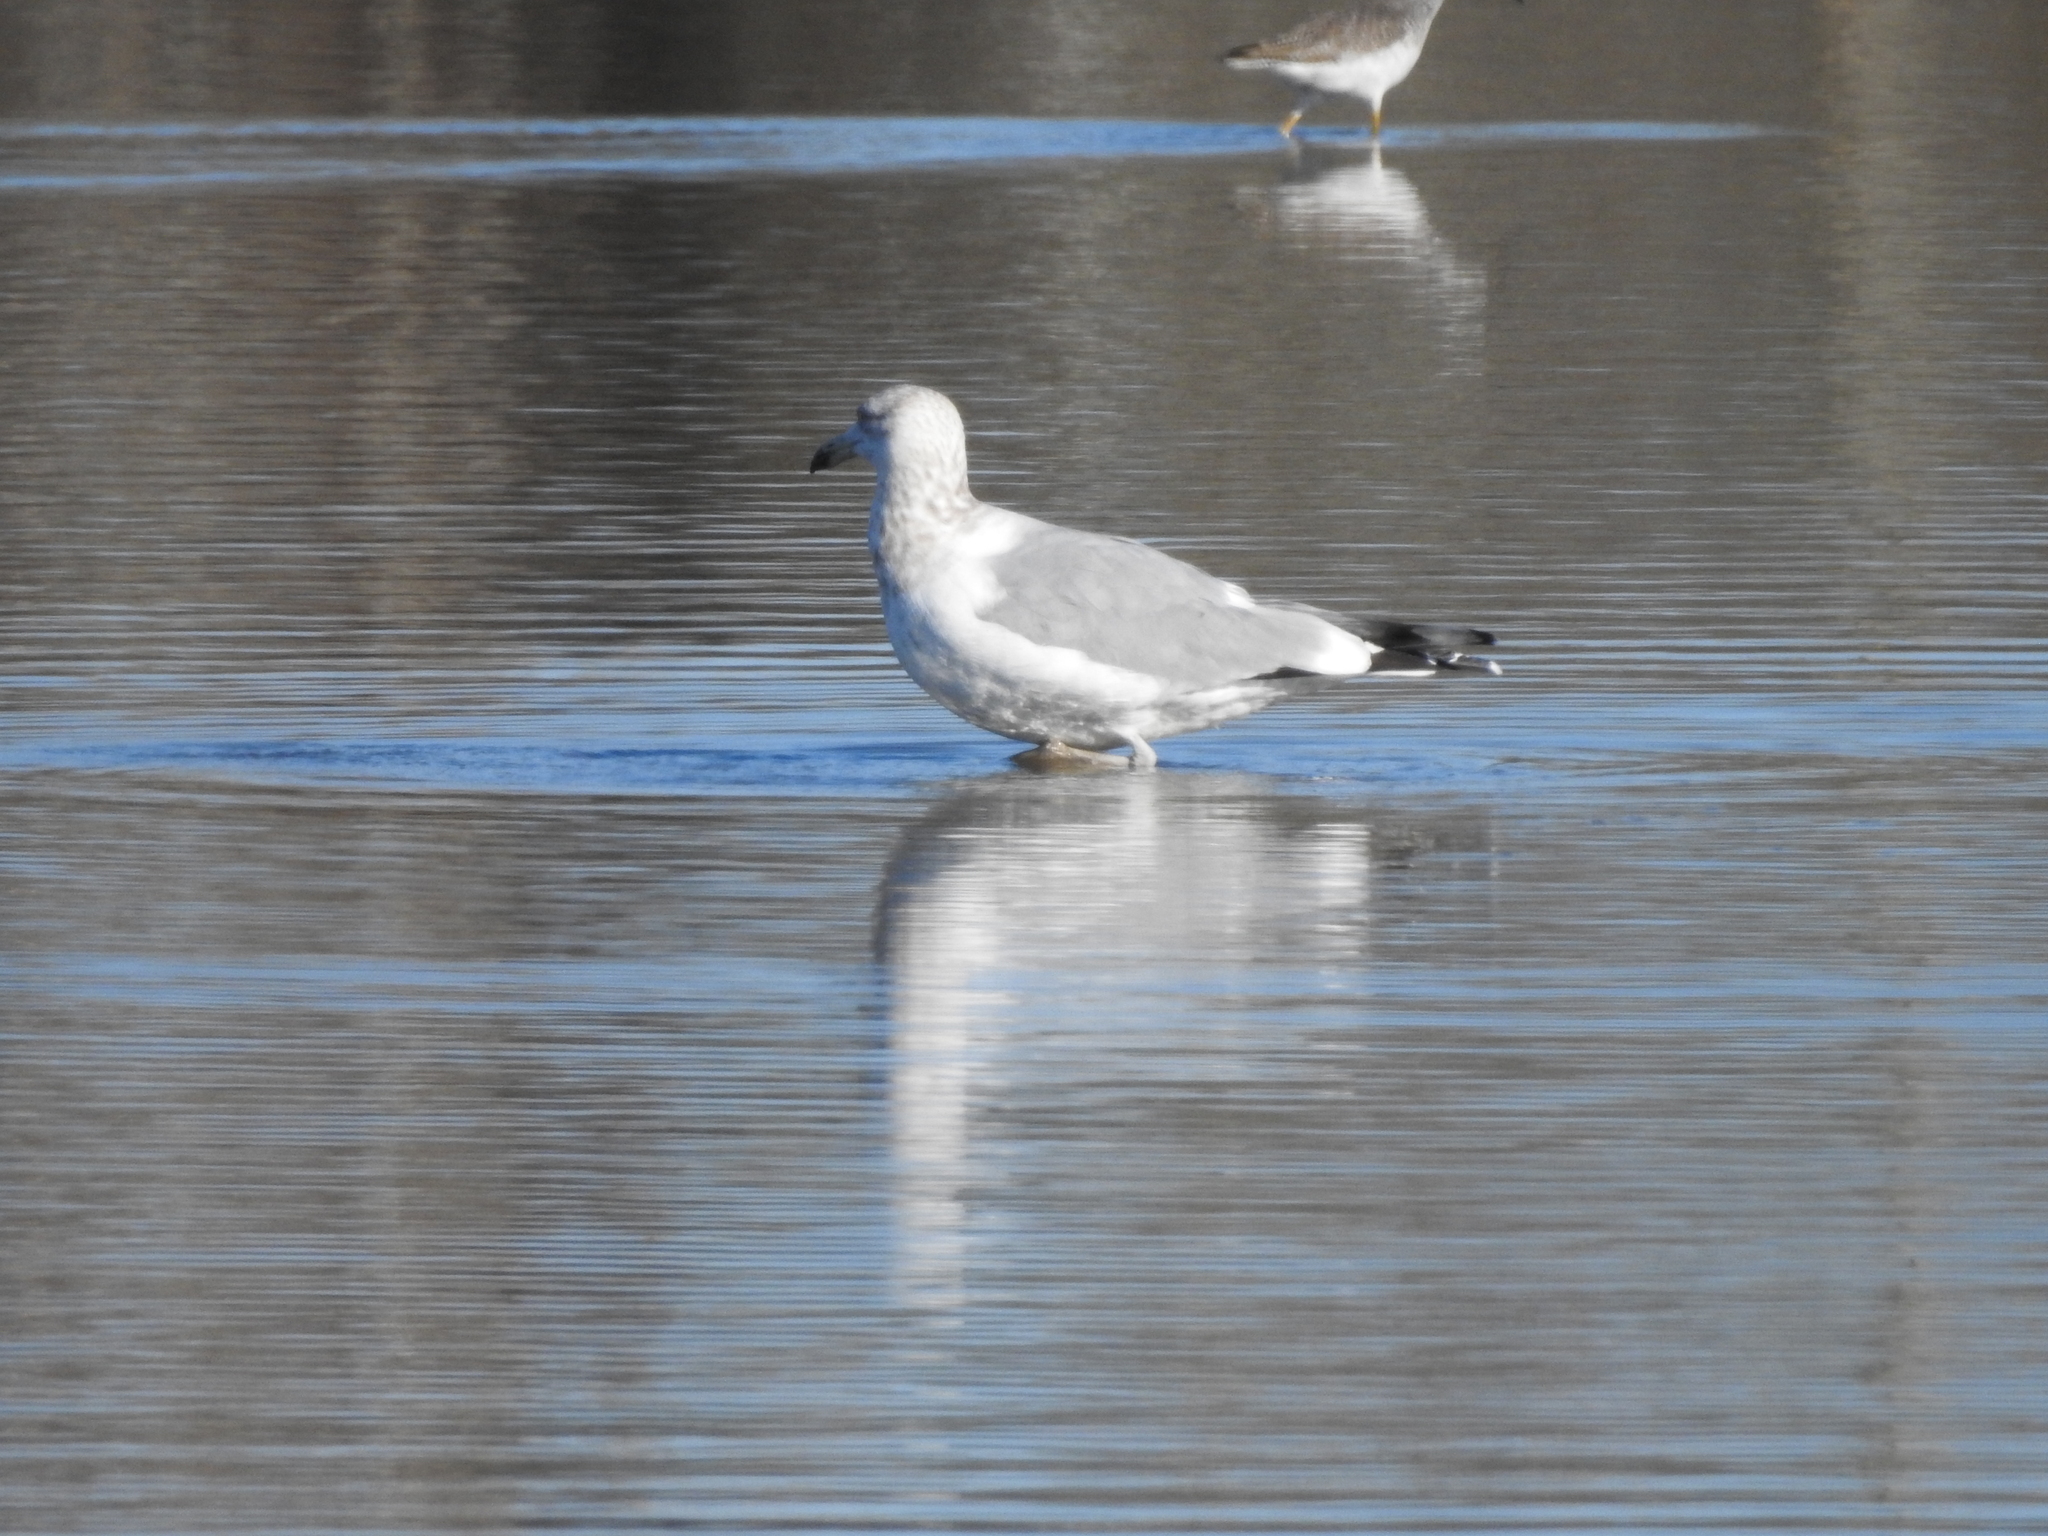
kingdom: Animalia
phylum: Chordata
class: Aves
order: Charadriiformes
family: Laridae
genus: Larus
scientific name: Larus argentatus
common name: Herring gull
